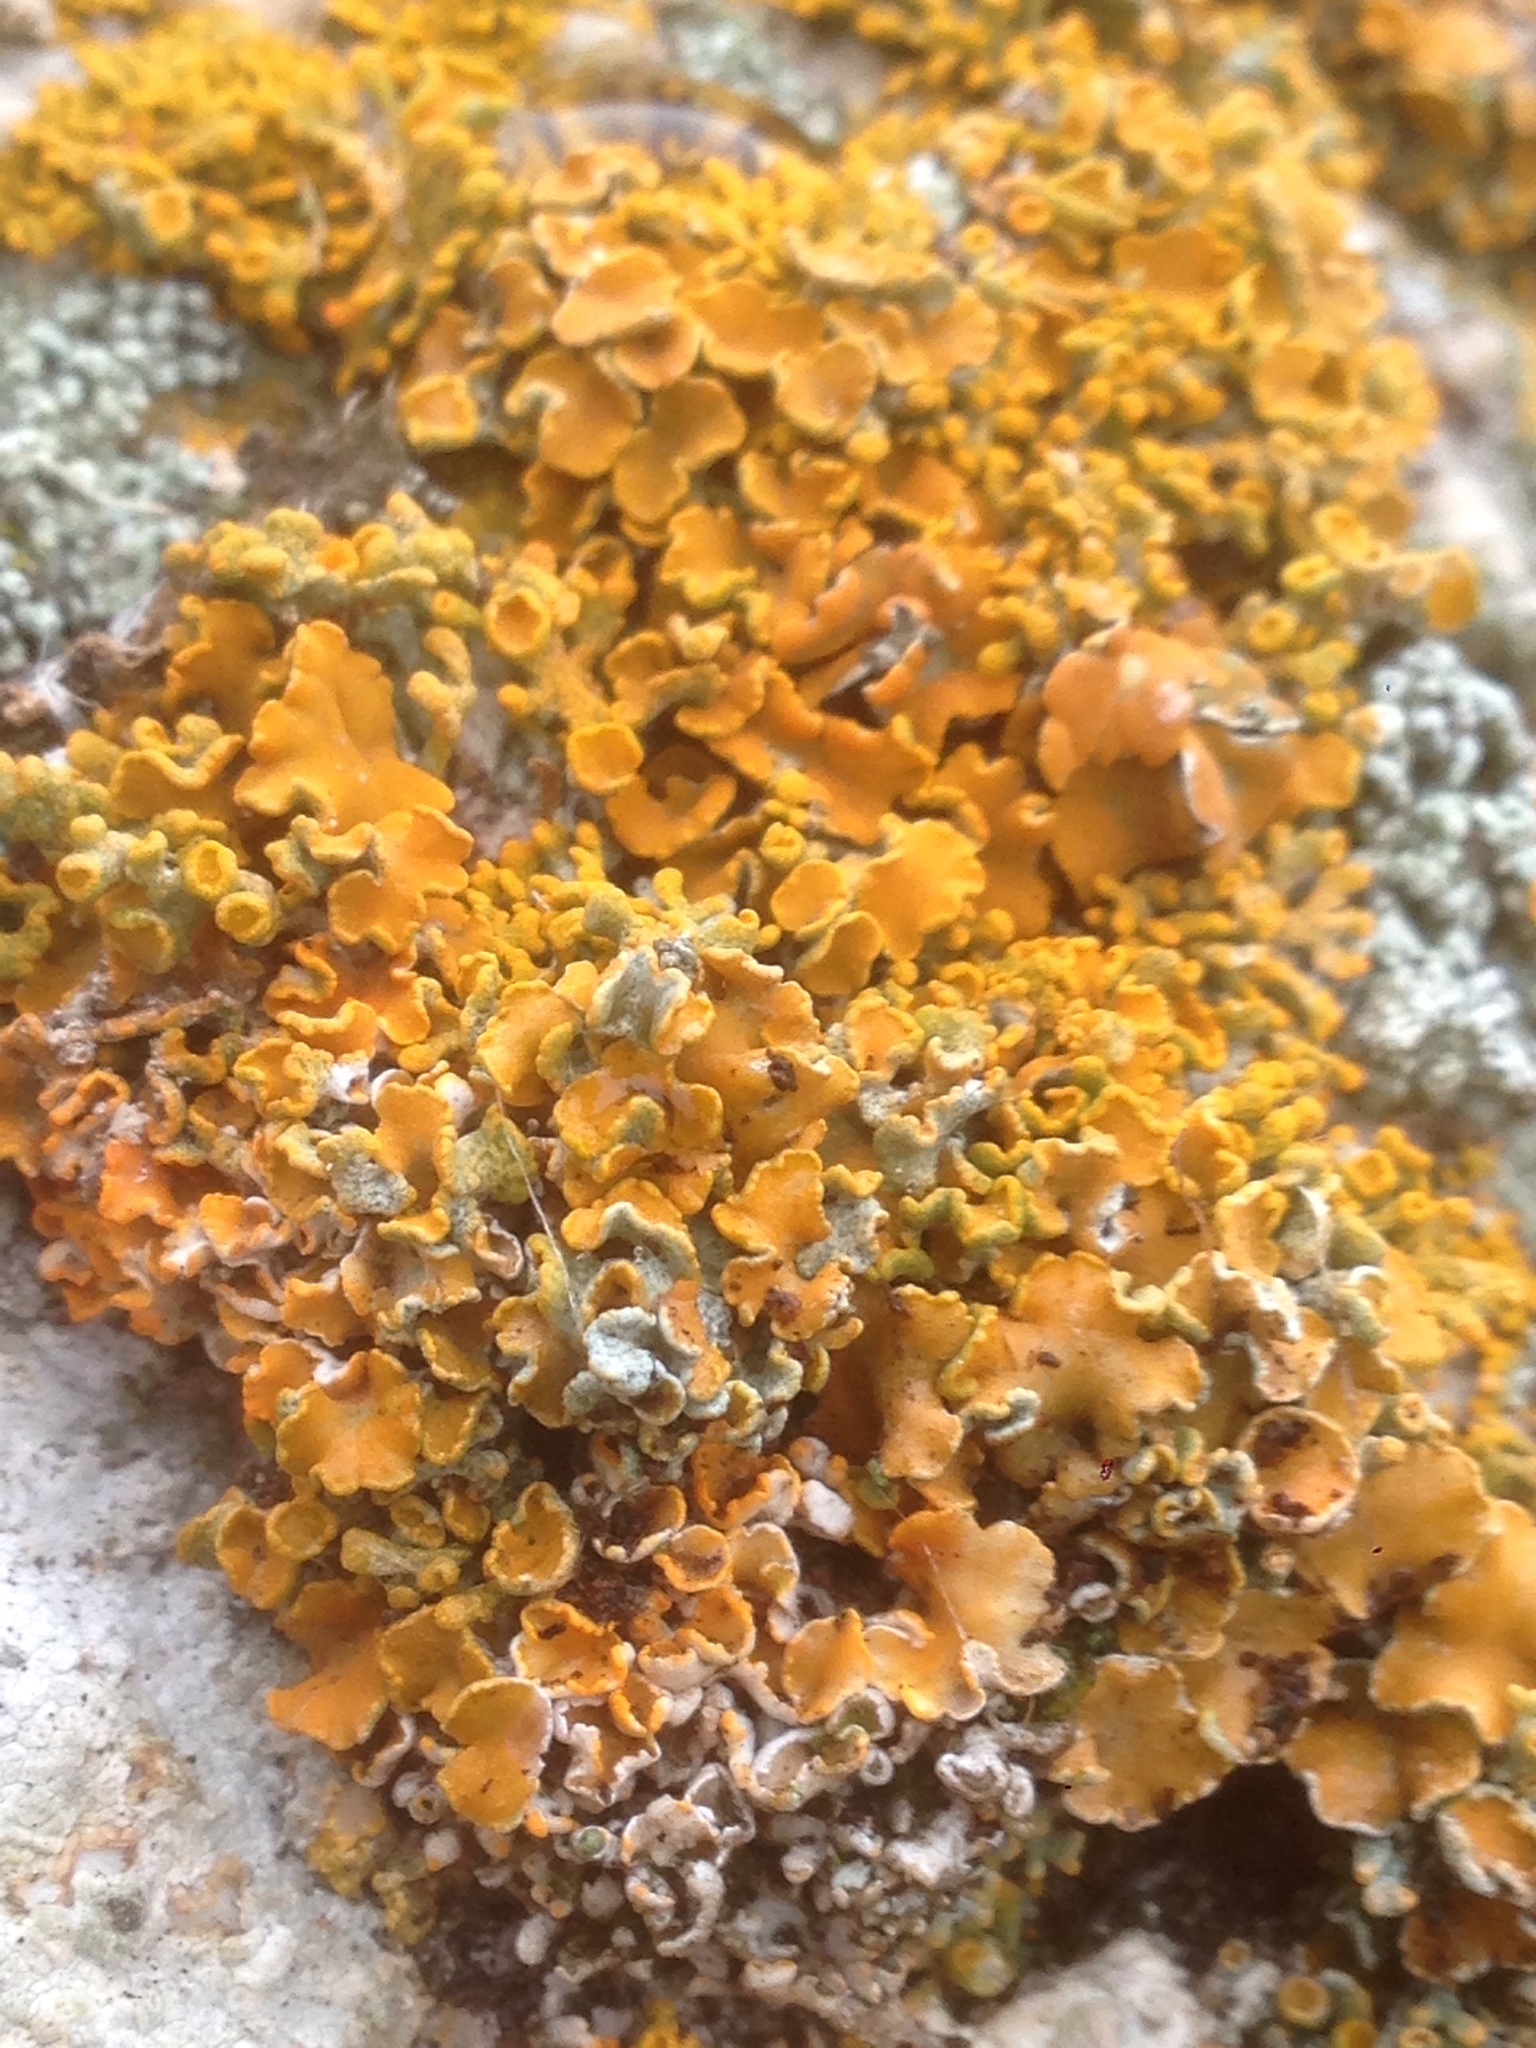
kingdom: Fungi
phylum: Ascomycota
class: Lecanoromycetes
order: Lecanorales
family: Lecanoraceae
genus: Edrudia
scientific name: Edrudia constipans
